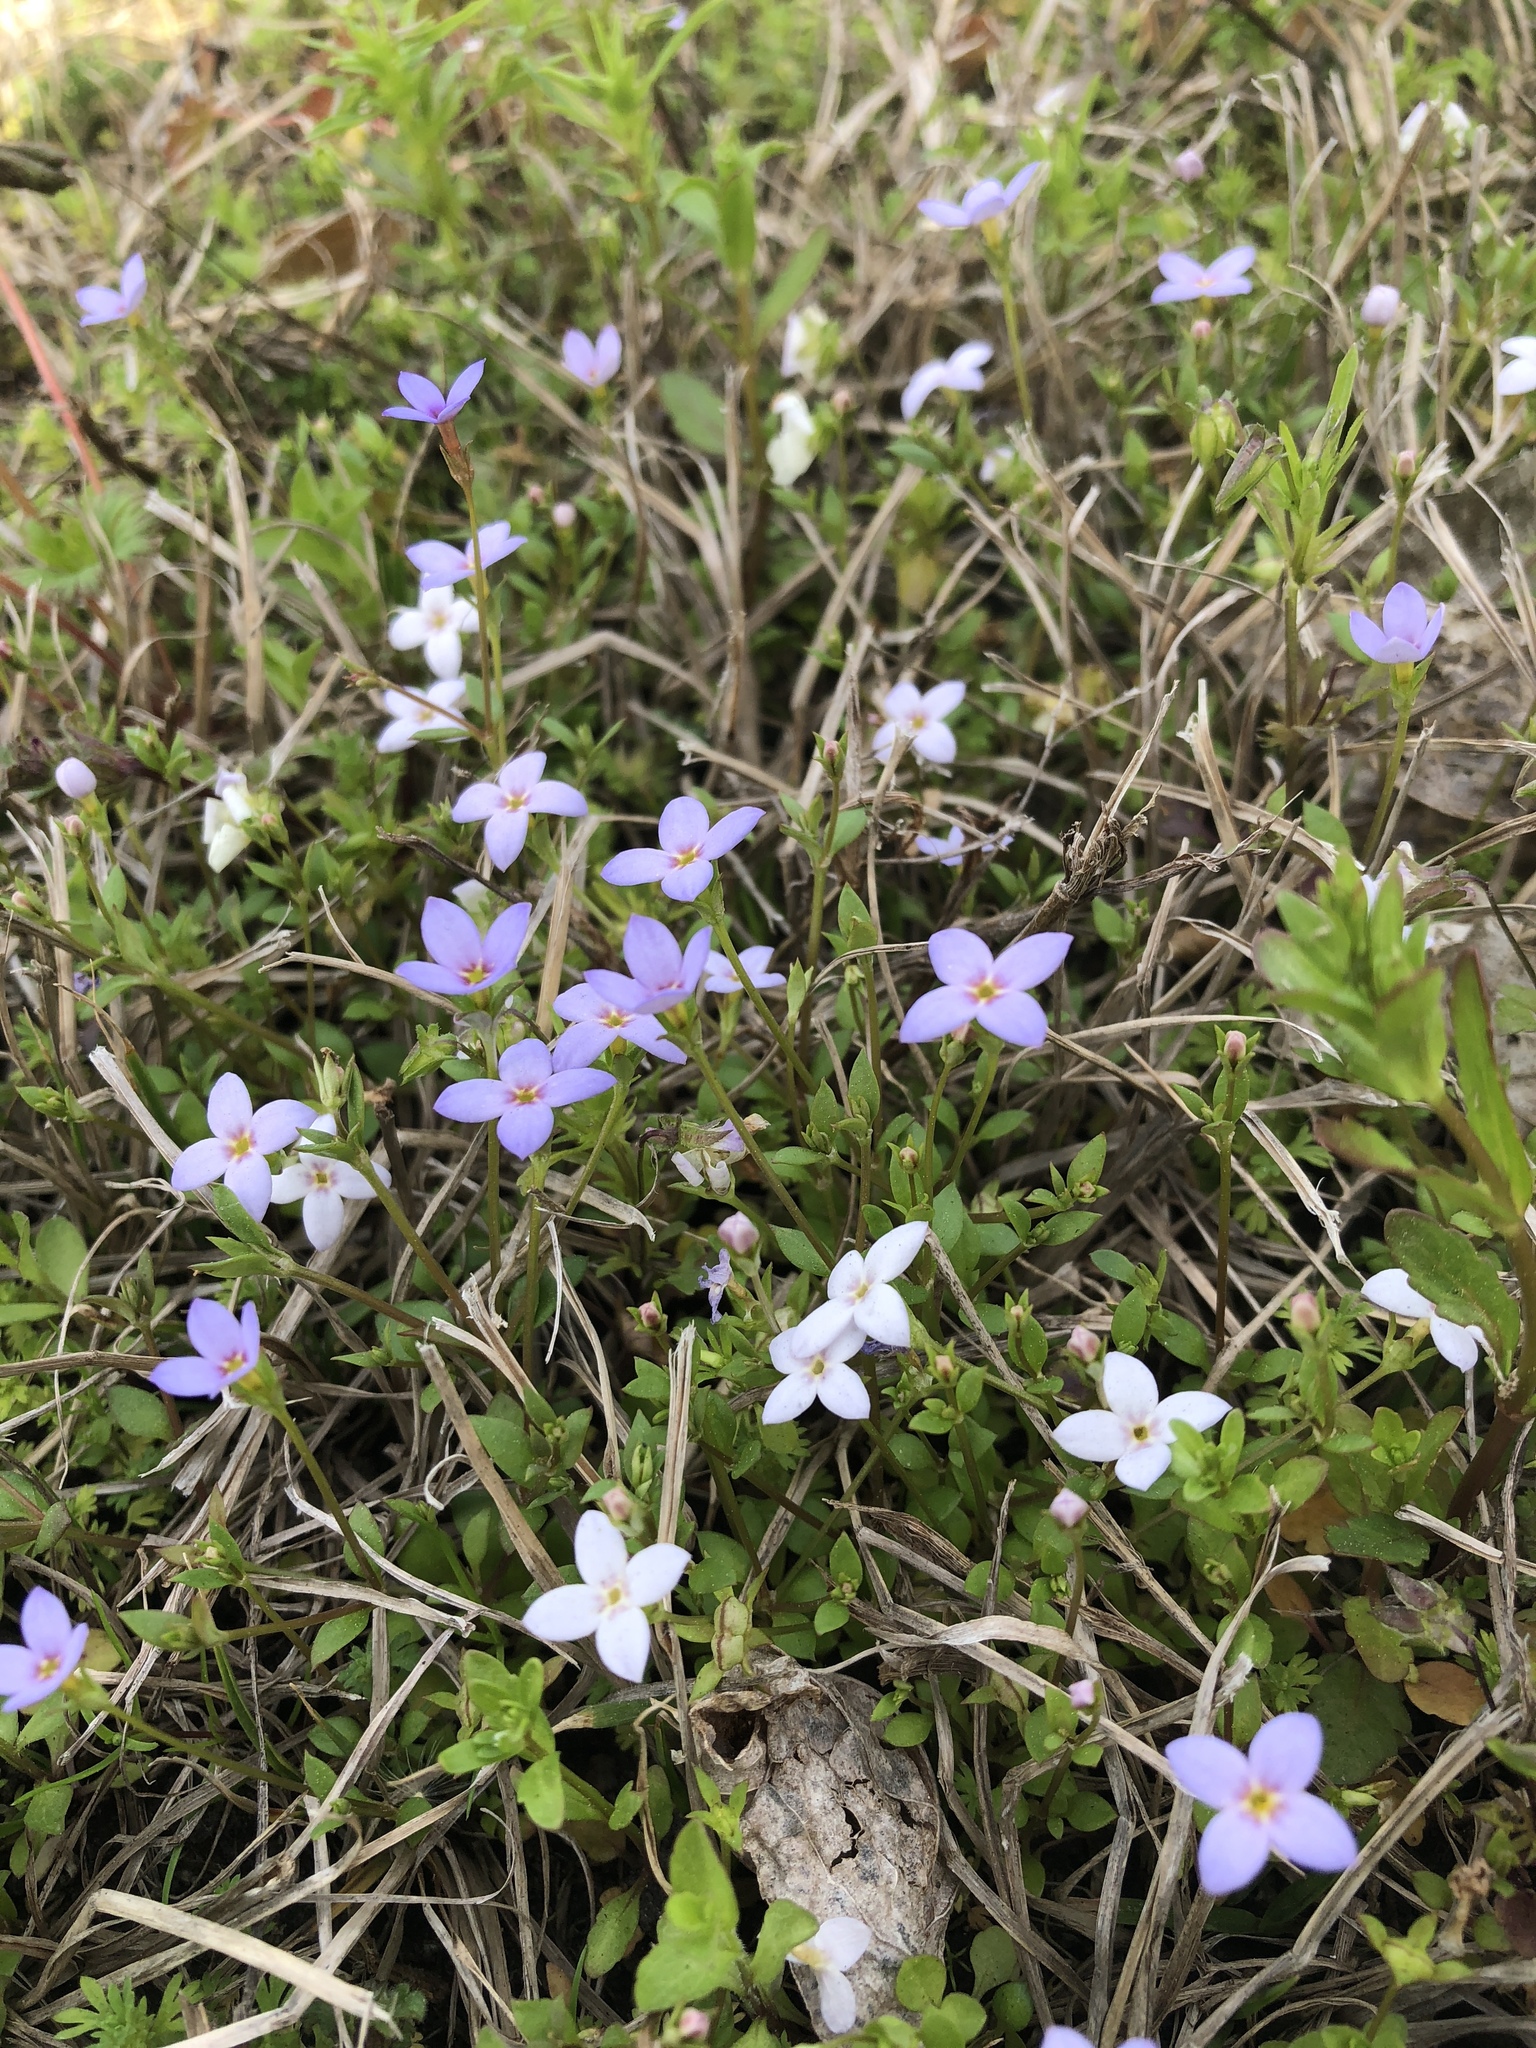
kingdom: Plantae
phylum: Tracheophyta
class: Magnoliopsida
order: Gentianales
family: Rubiaceae
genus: Houstonia
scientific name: Houstonia pusilla
